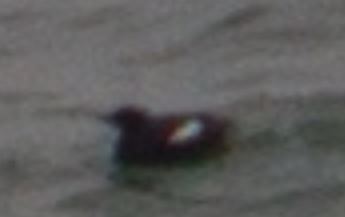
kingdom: Animalia
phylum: Chordata
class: Aves
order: Charadriiformes
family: Alcidae
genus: Cepphus
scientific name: Cepphus grylle
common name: Black guillemot
